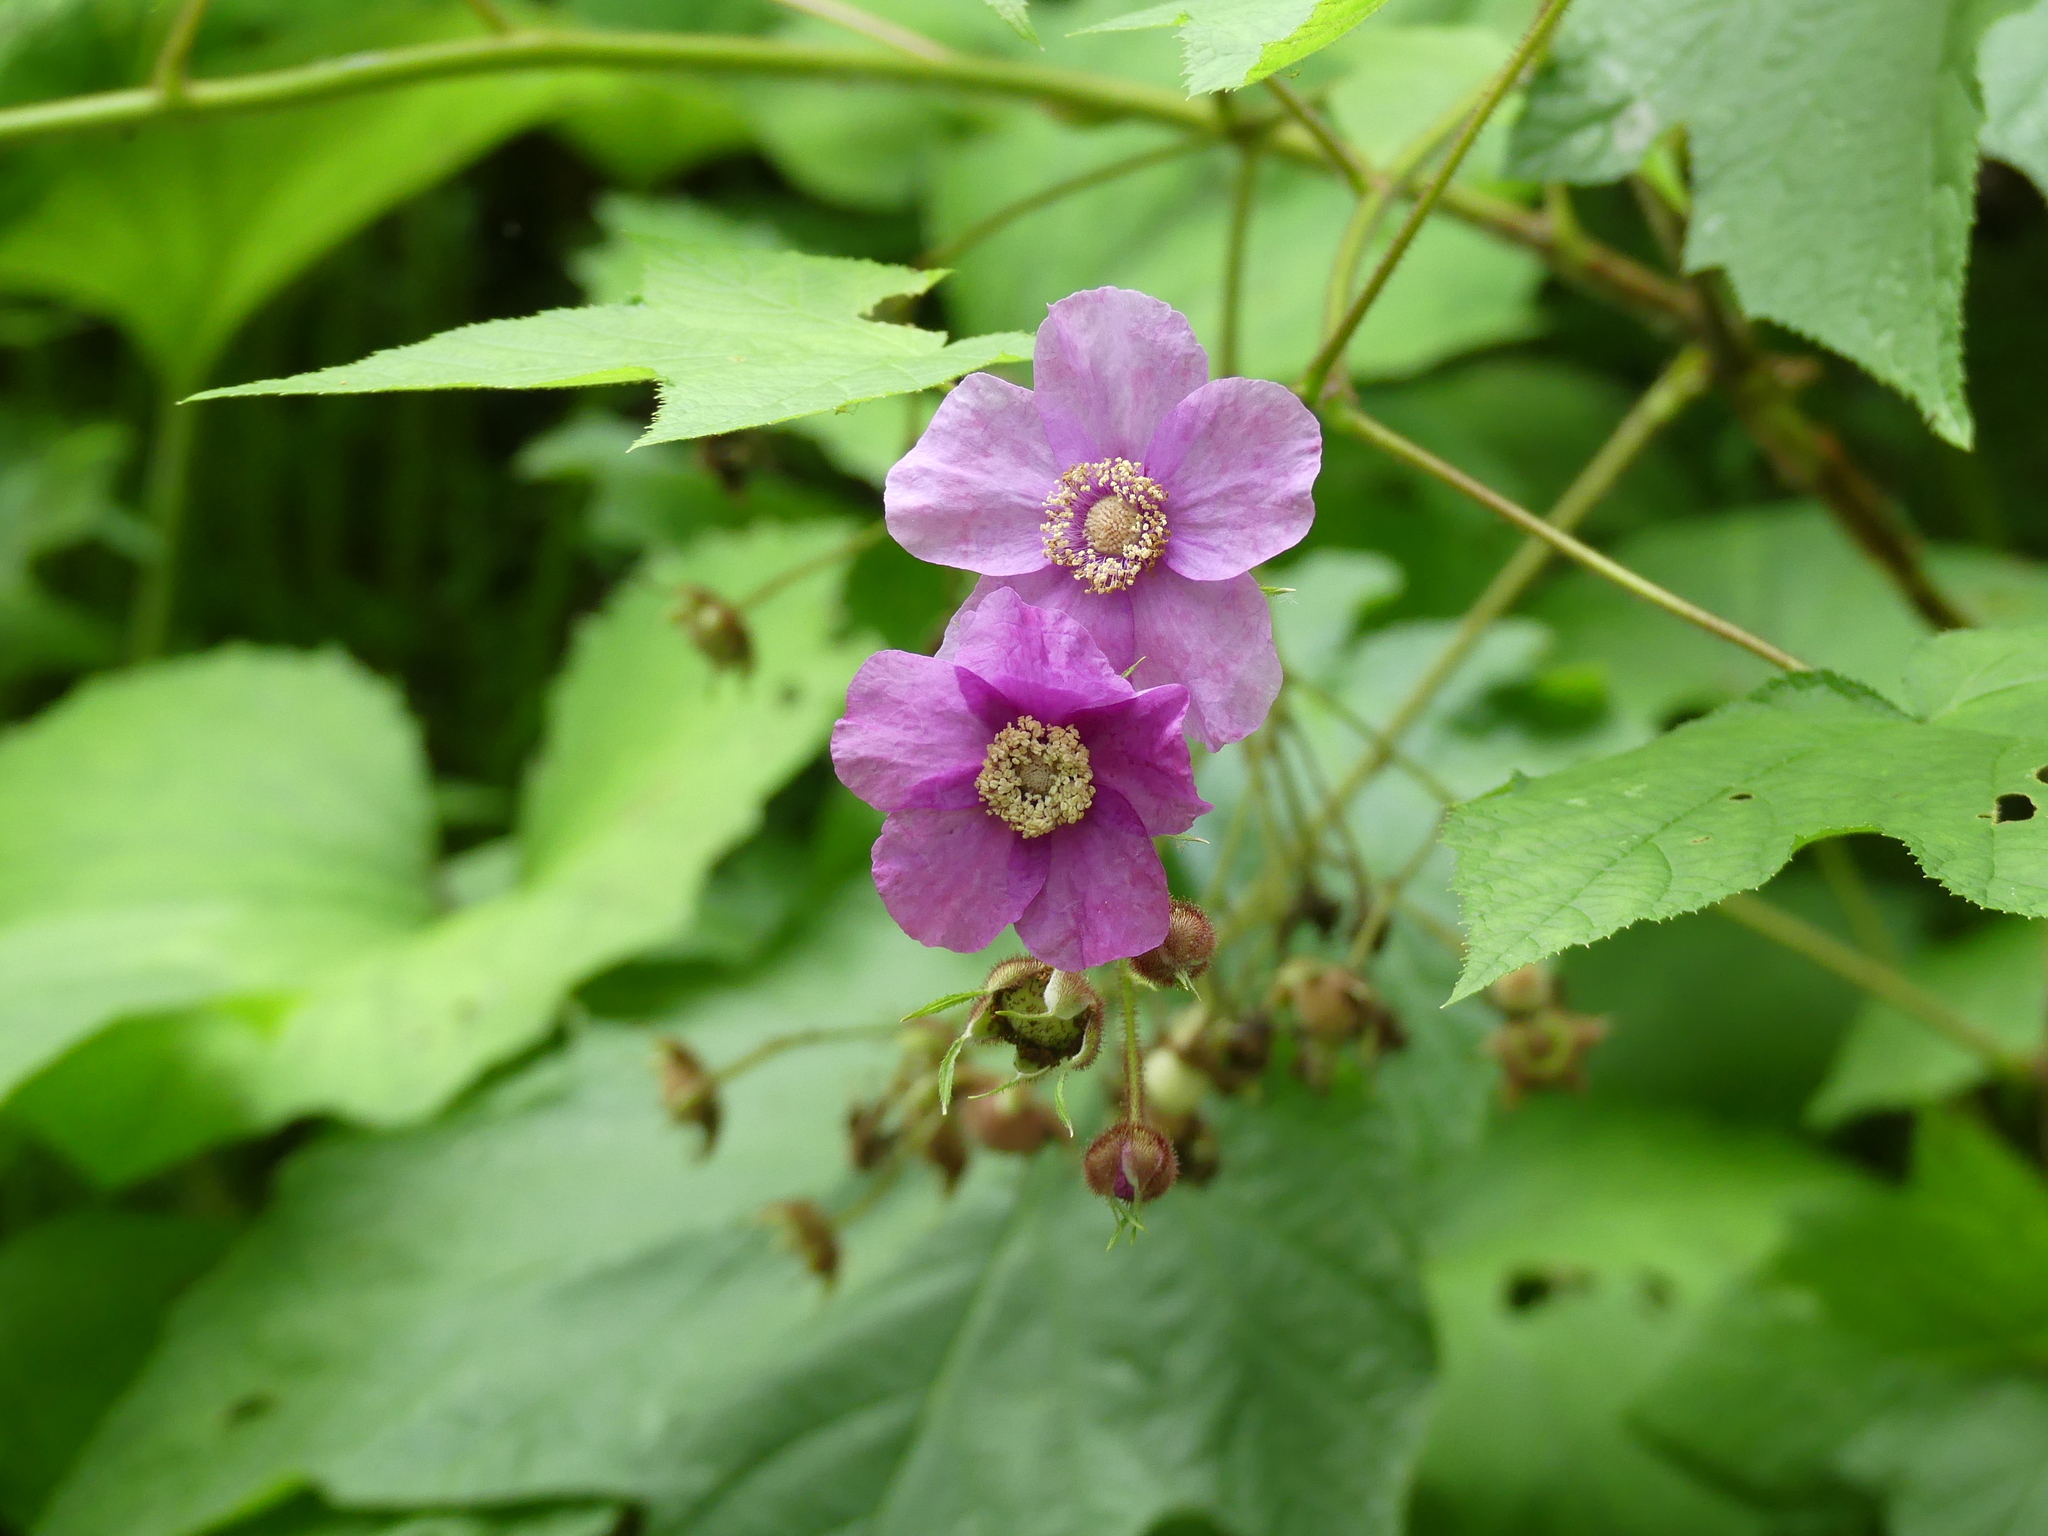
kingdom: Plantae
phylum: Tracheophyta
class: Magnoliopsida
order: Rosales
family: Rosaceae
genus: Rubus
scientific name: Rubus odoratus
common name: Purple-flowered raspberry
